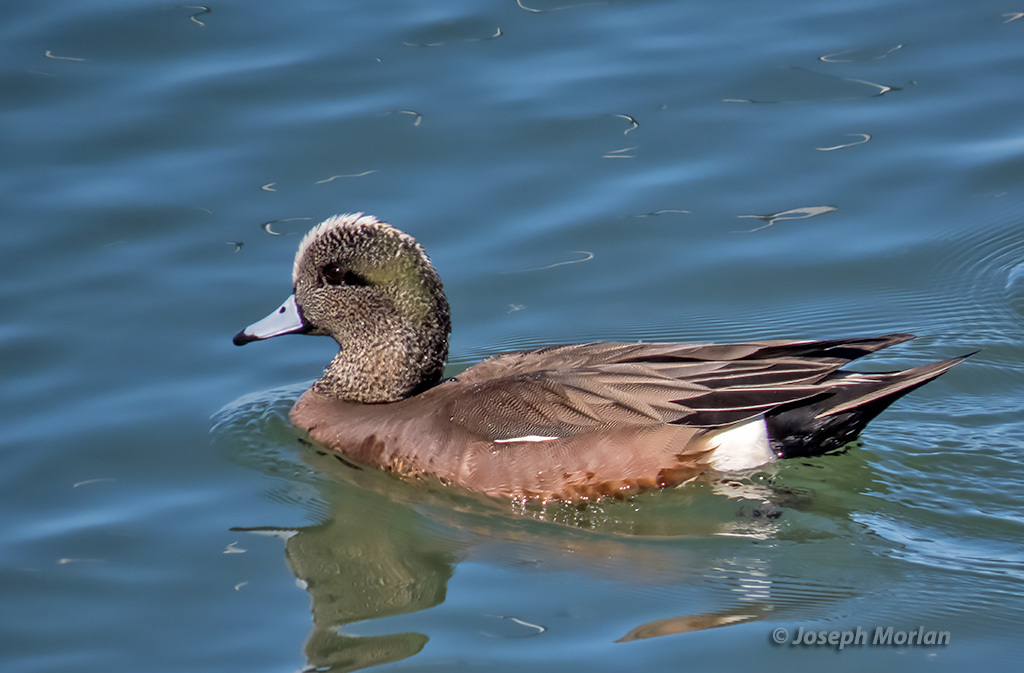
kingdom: Animalia
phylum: Chordata
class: Aves
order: Anseriformes
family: Anatidae
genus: Mareca
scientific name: Mareca americana
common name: American wigeon
